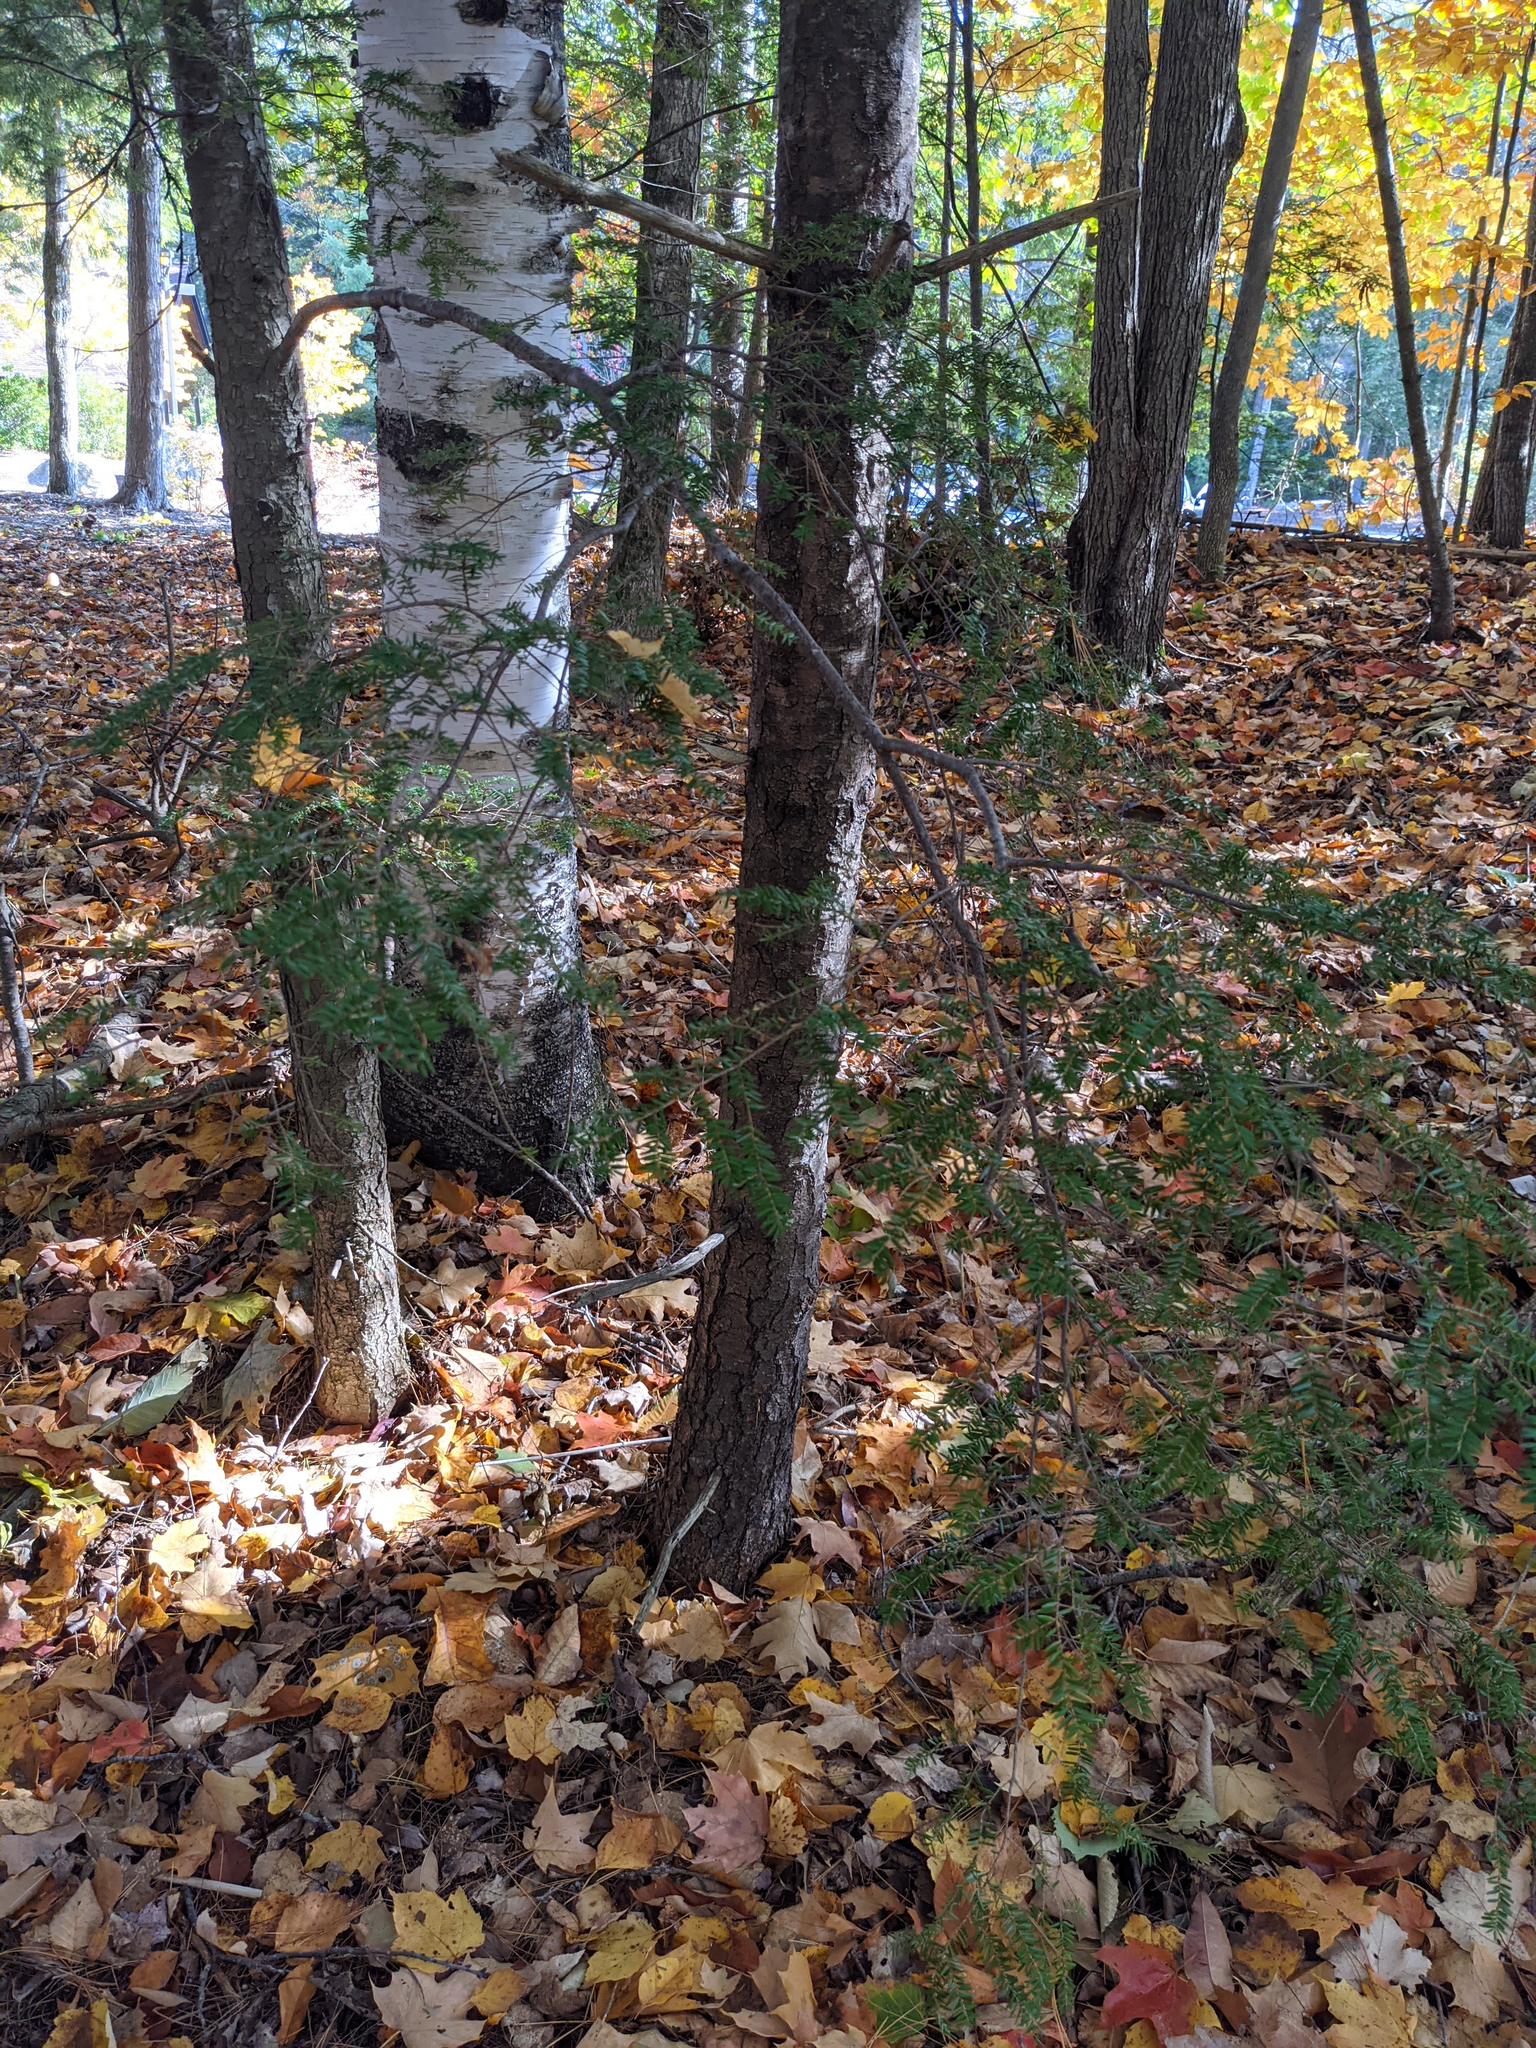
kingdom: Plantae
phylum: Tracheophyta
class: Pinopsida
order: Pinales
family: Pinaceae
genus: Tsuga
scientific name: Tsuga canadensis
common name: Eastern hemlock
